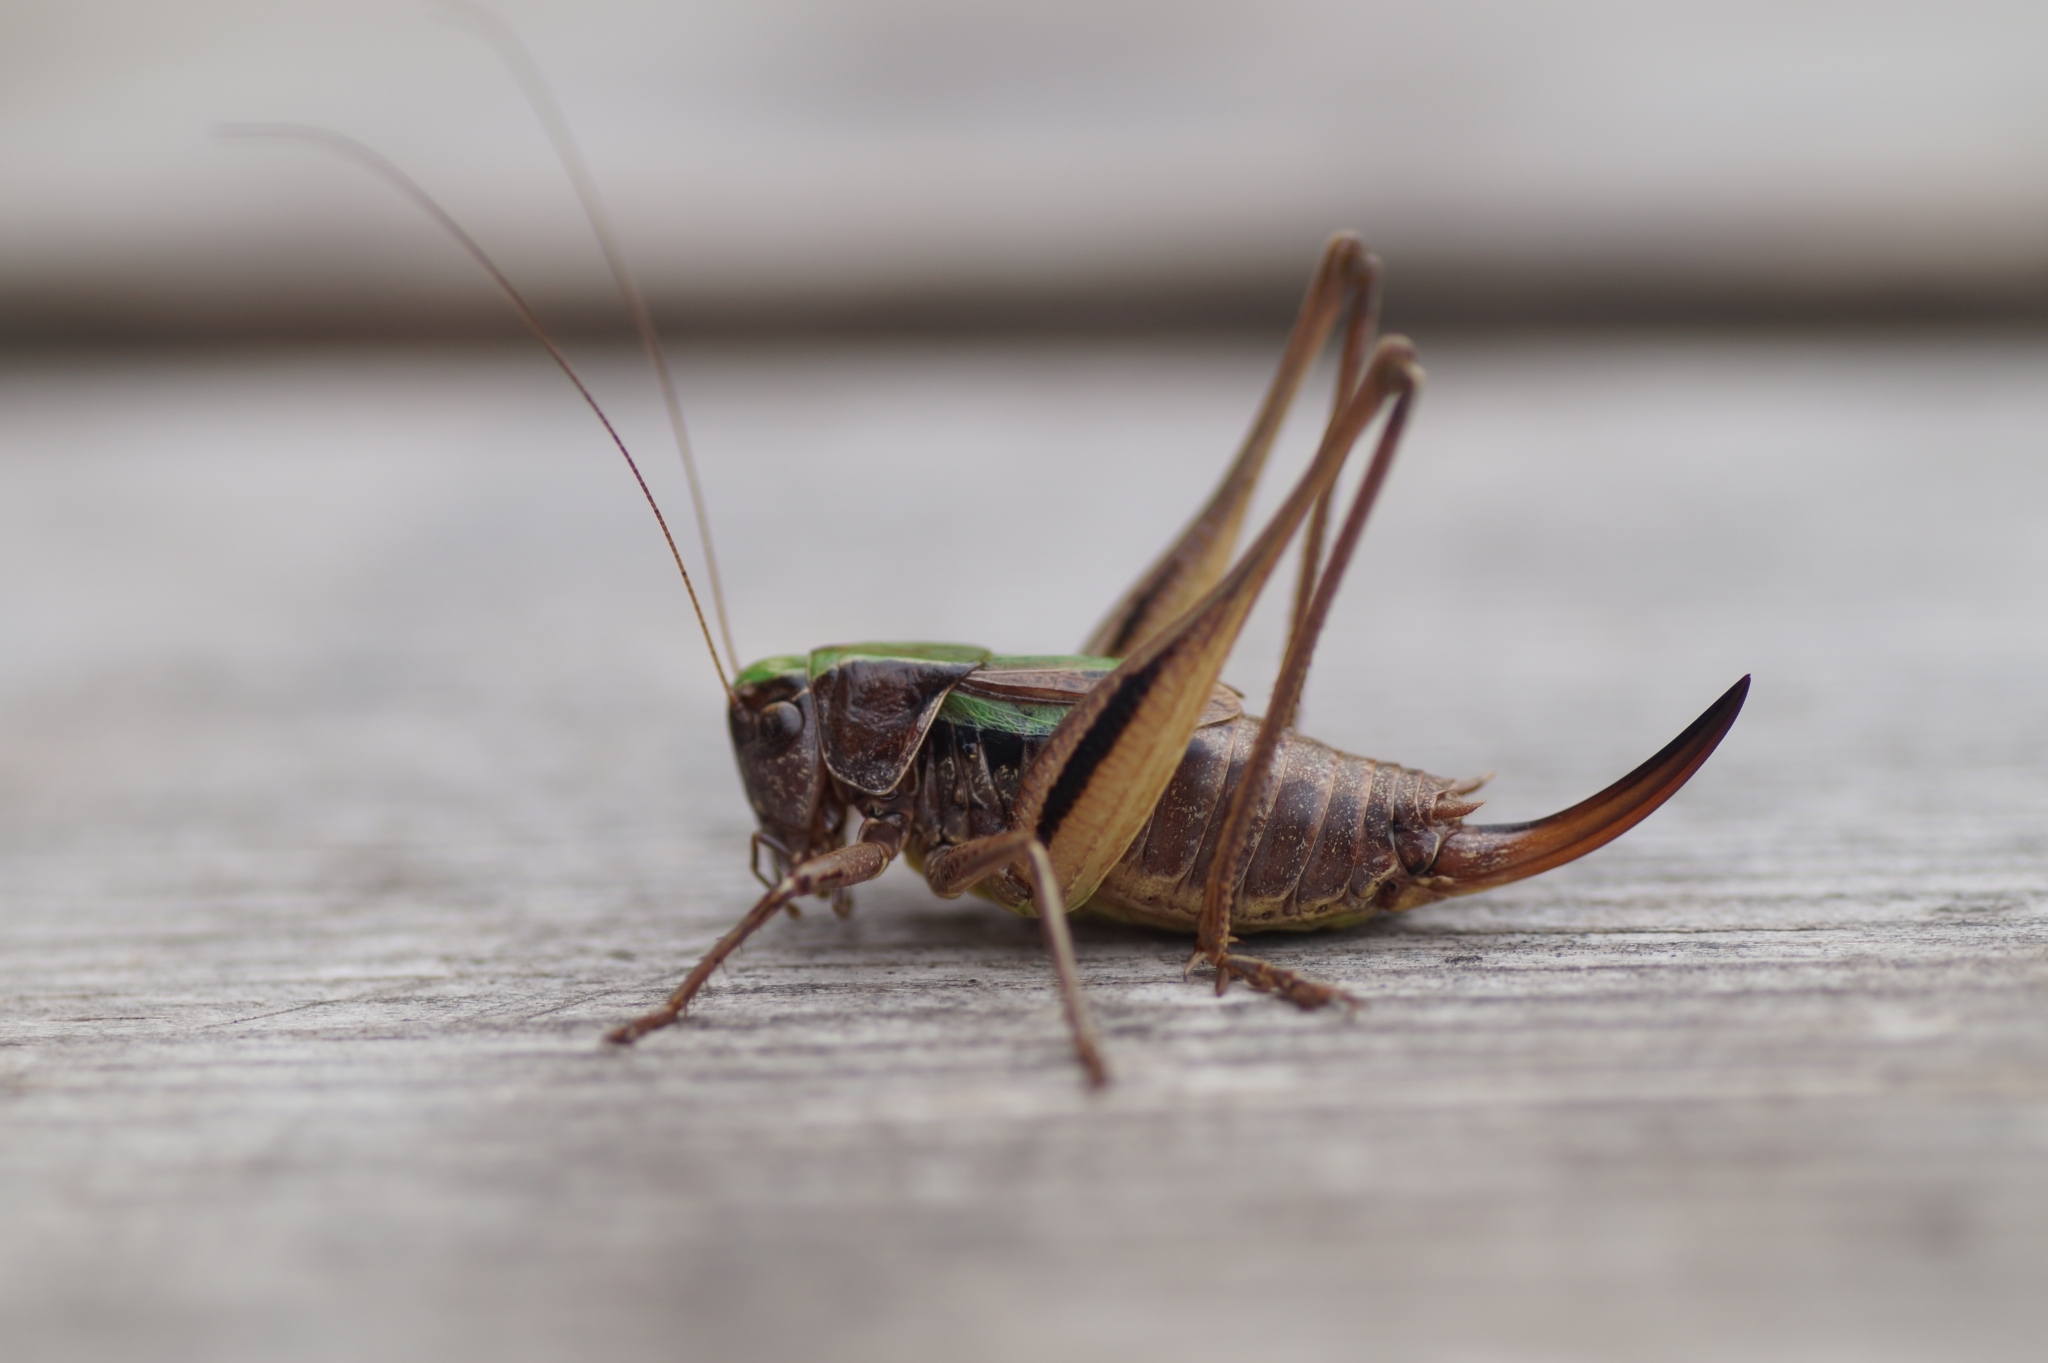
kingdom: Animalia
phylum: Arthropoda
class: Insecta
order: Orthoptera
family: Tettigoniidae
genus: Metrioptera
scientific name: Metrioptera brachyptera
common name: Bog bush-cricket
